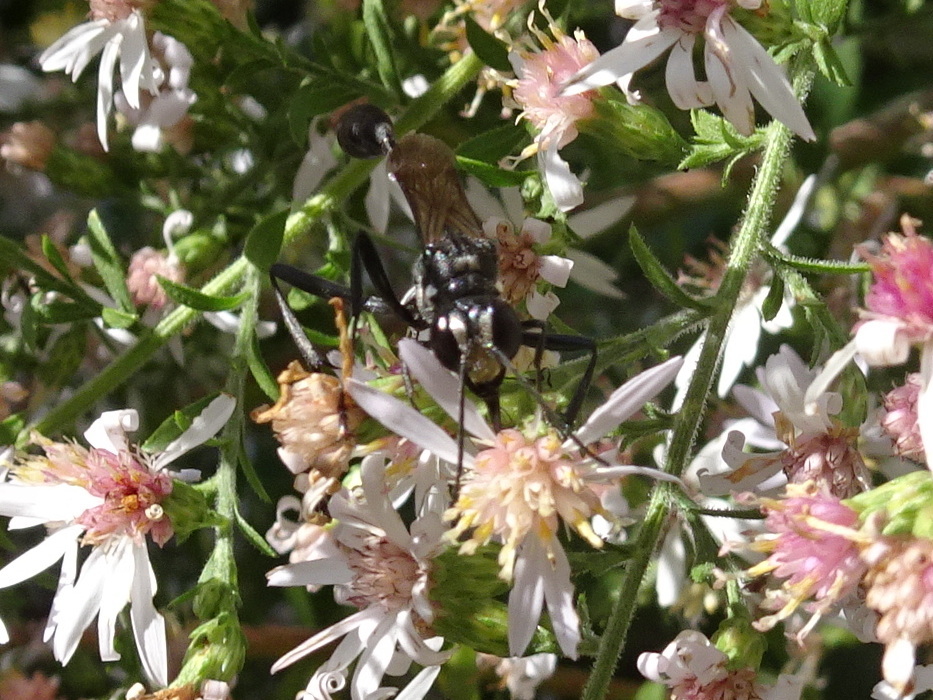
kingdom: Animalia
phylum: Arthropoda
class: Insecta
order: Hymenoptera
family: Sphecidae
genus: Eremnophila
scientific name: Eremnophila aureonotata
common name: Gold-marked thread-waisted wasp
